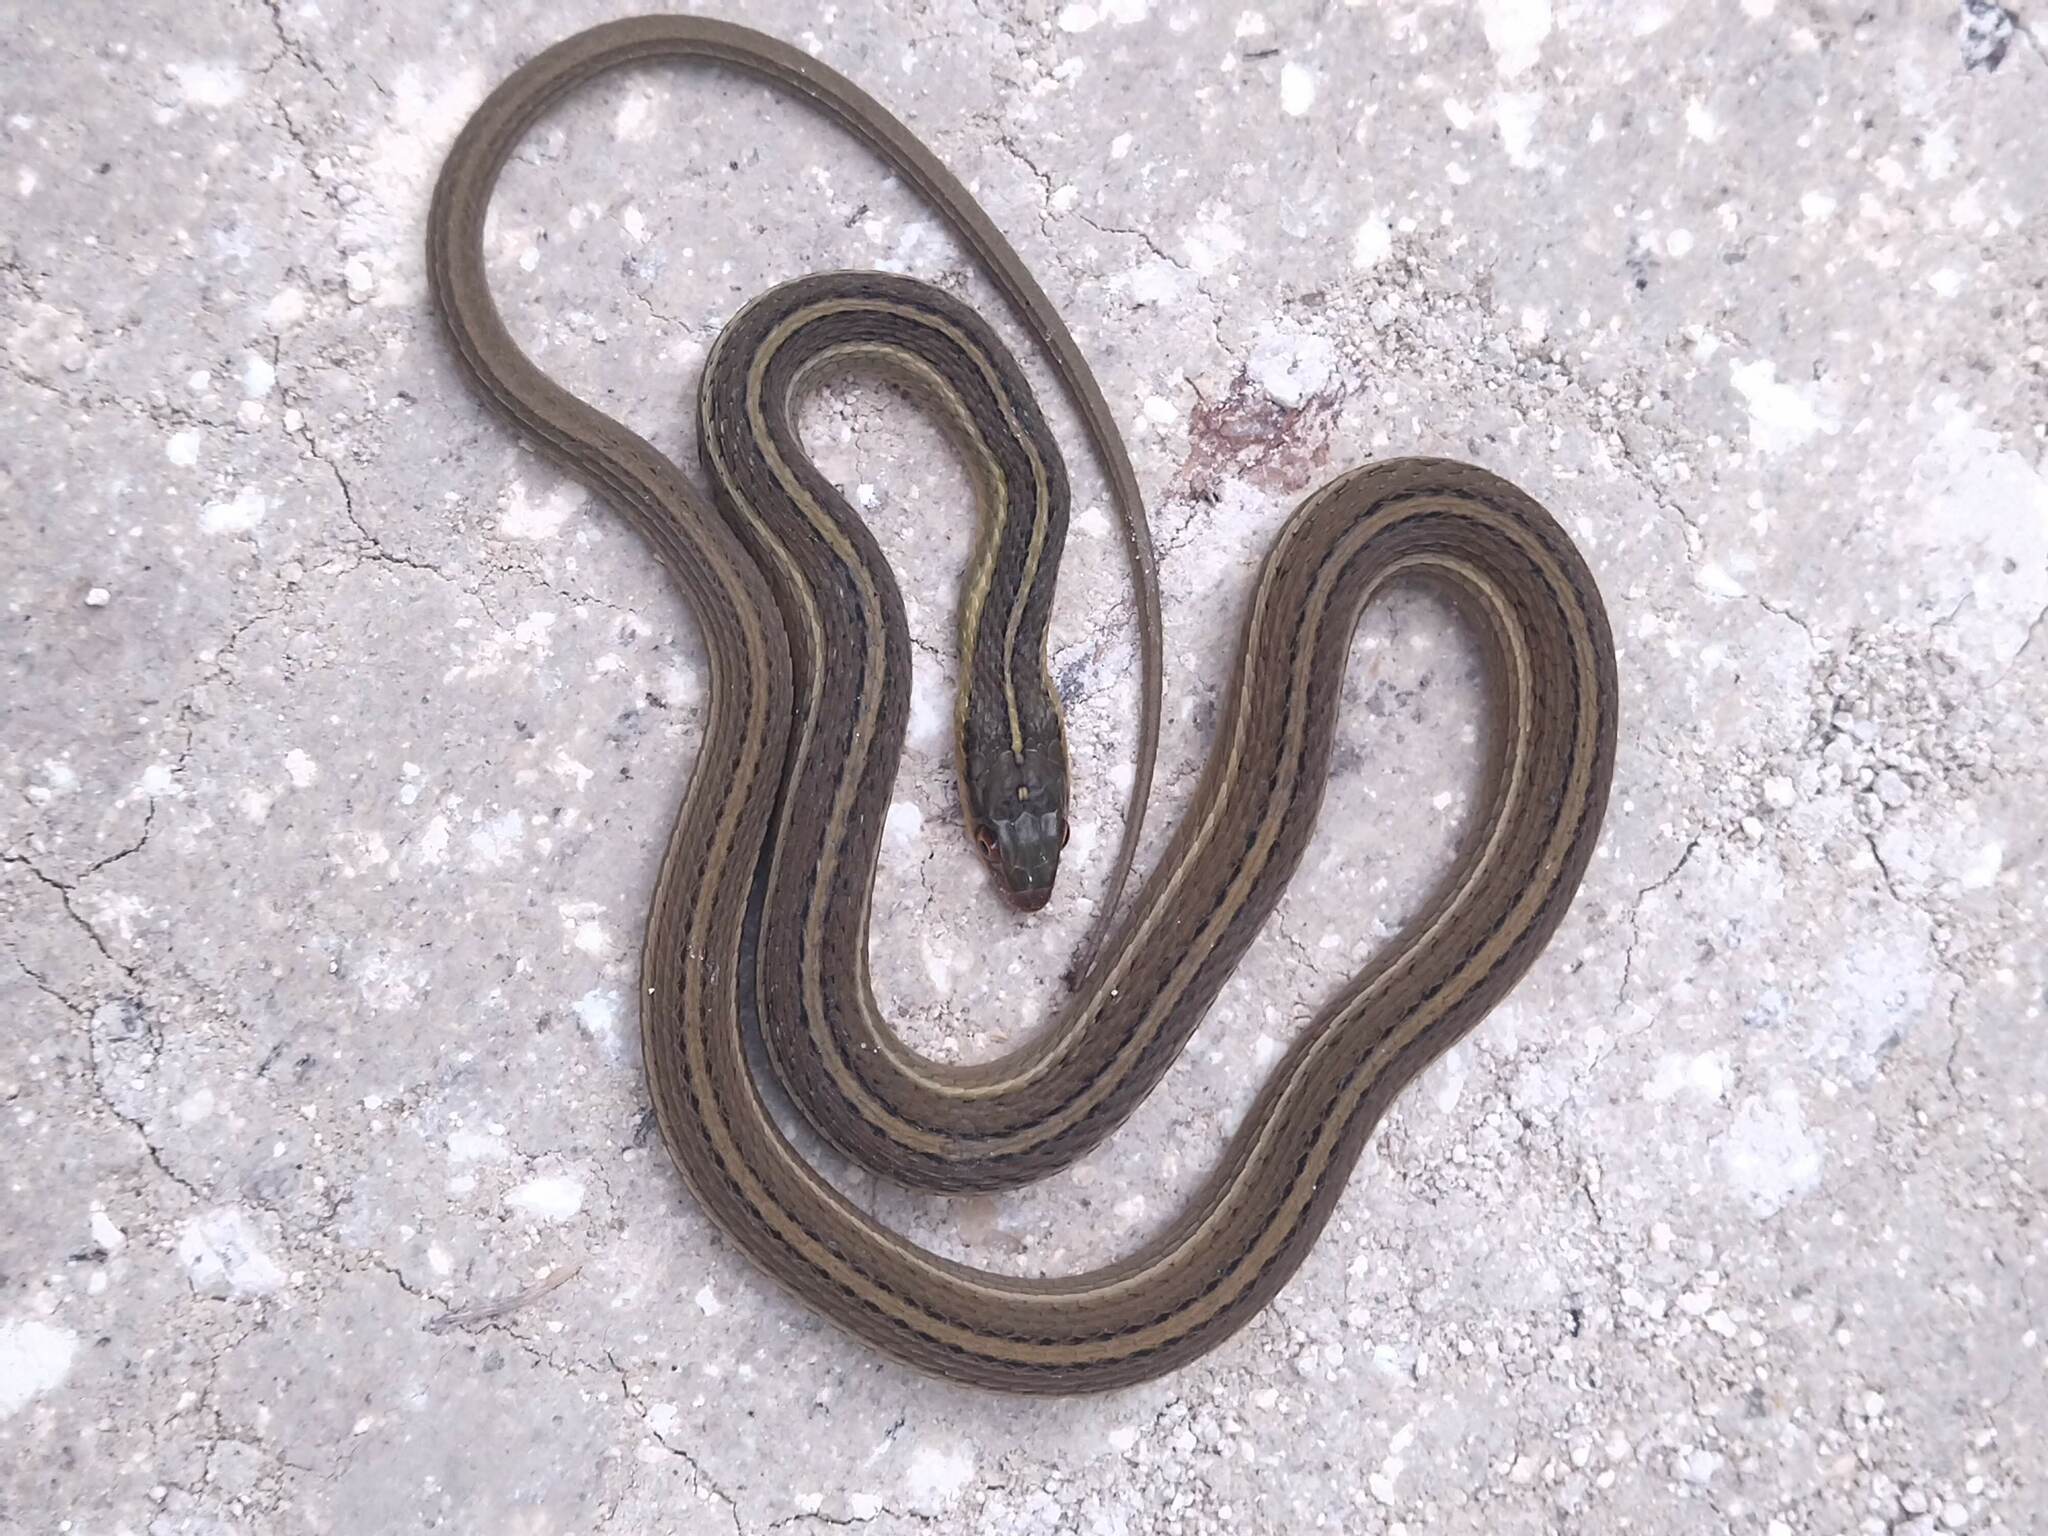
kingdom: Animalia
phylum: Chordata
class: Squamata
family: Colubridae
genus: Thamnophis
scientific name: Thamnophis proximus
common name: Western ribbon snake
